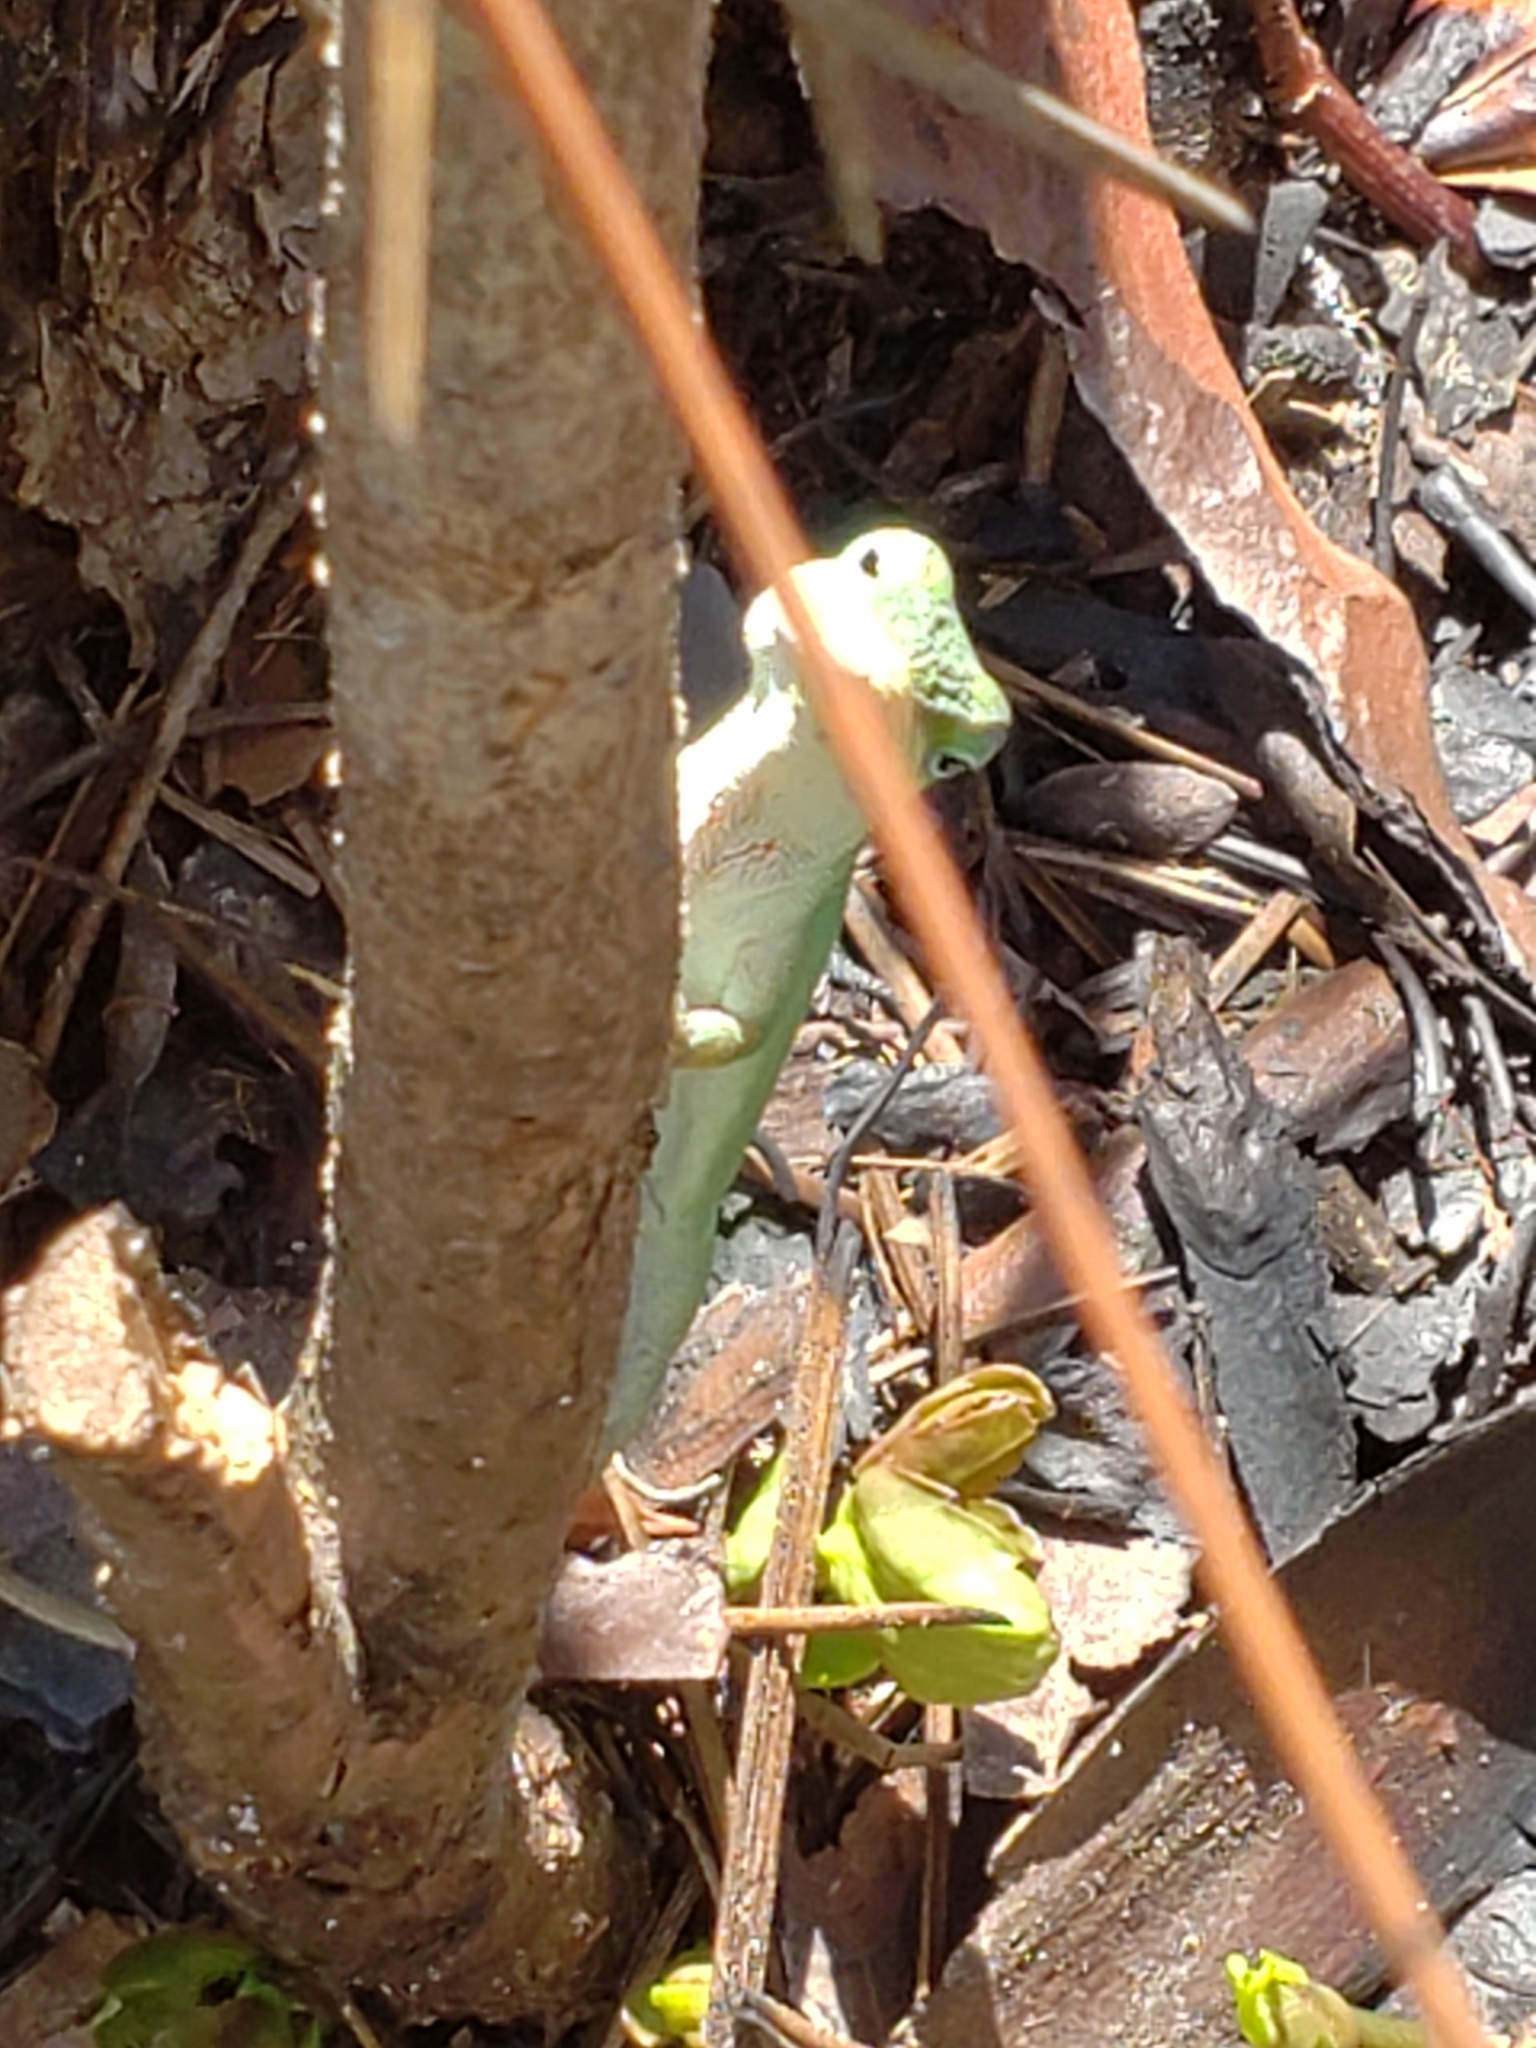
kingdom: Animalia
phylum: Chordata
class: Squamata
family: Dactyloidae
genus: Anolis
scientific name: Anolis carolinensis
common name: Green anole
